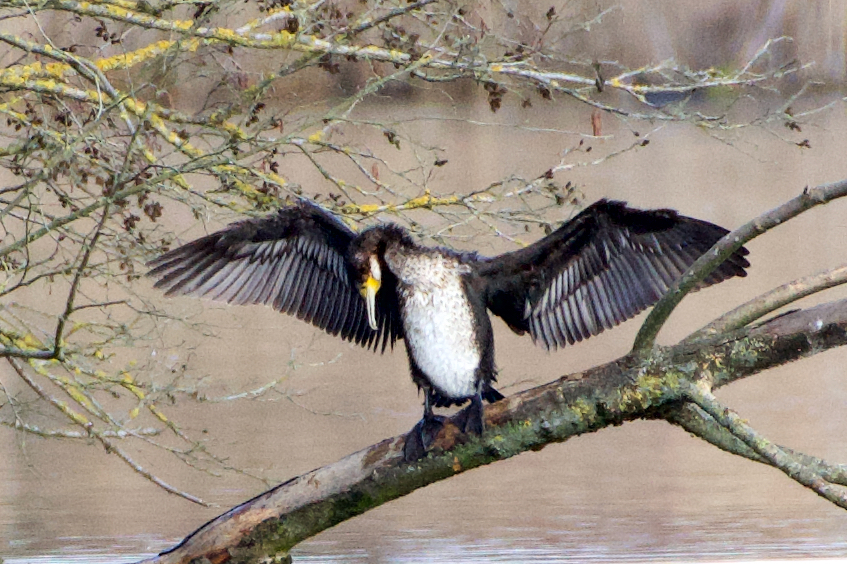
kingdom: Animalia
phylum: Chordata
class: Aves
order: Suliformes
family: Phalacrocoracidae
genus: Phalacrocorax
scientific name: Phalacrocorax carbo
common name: Great cormorant
